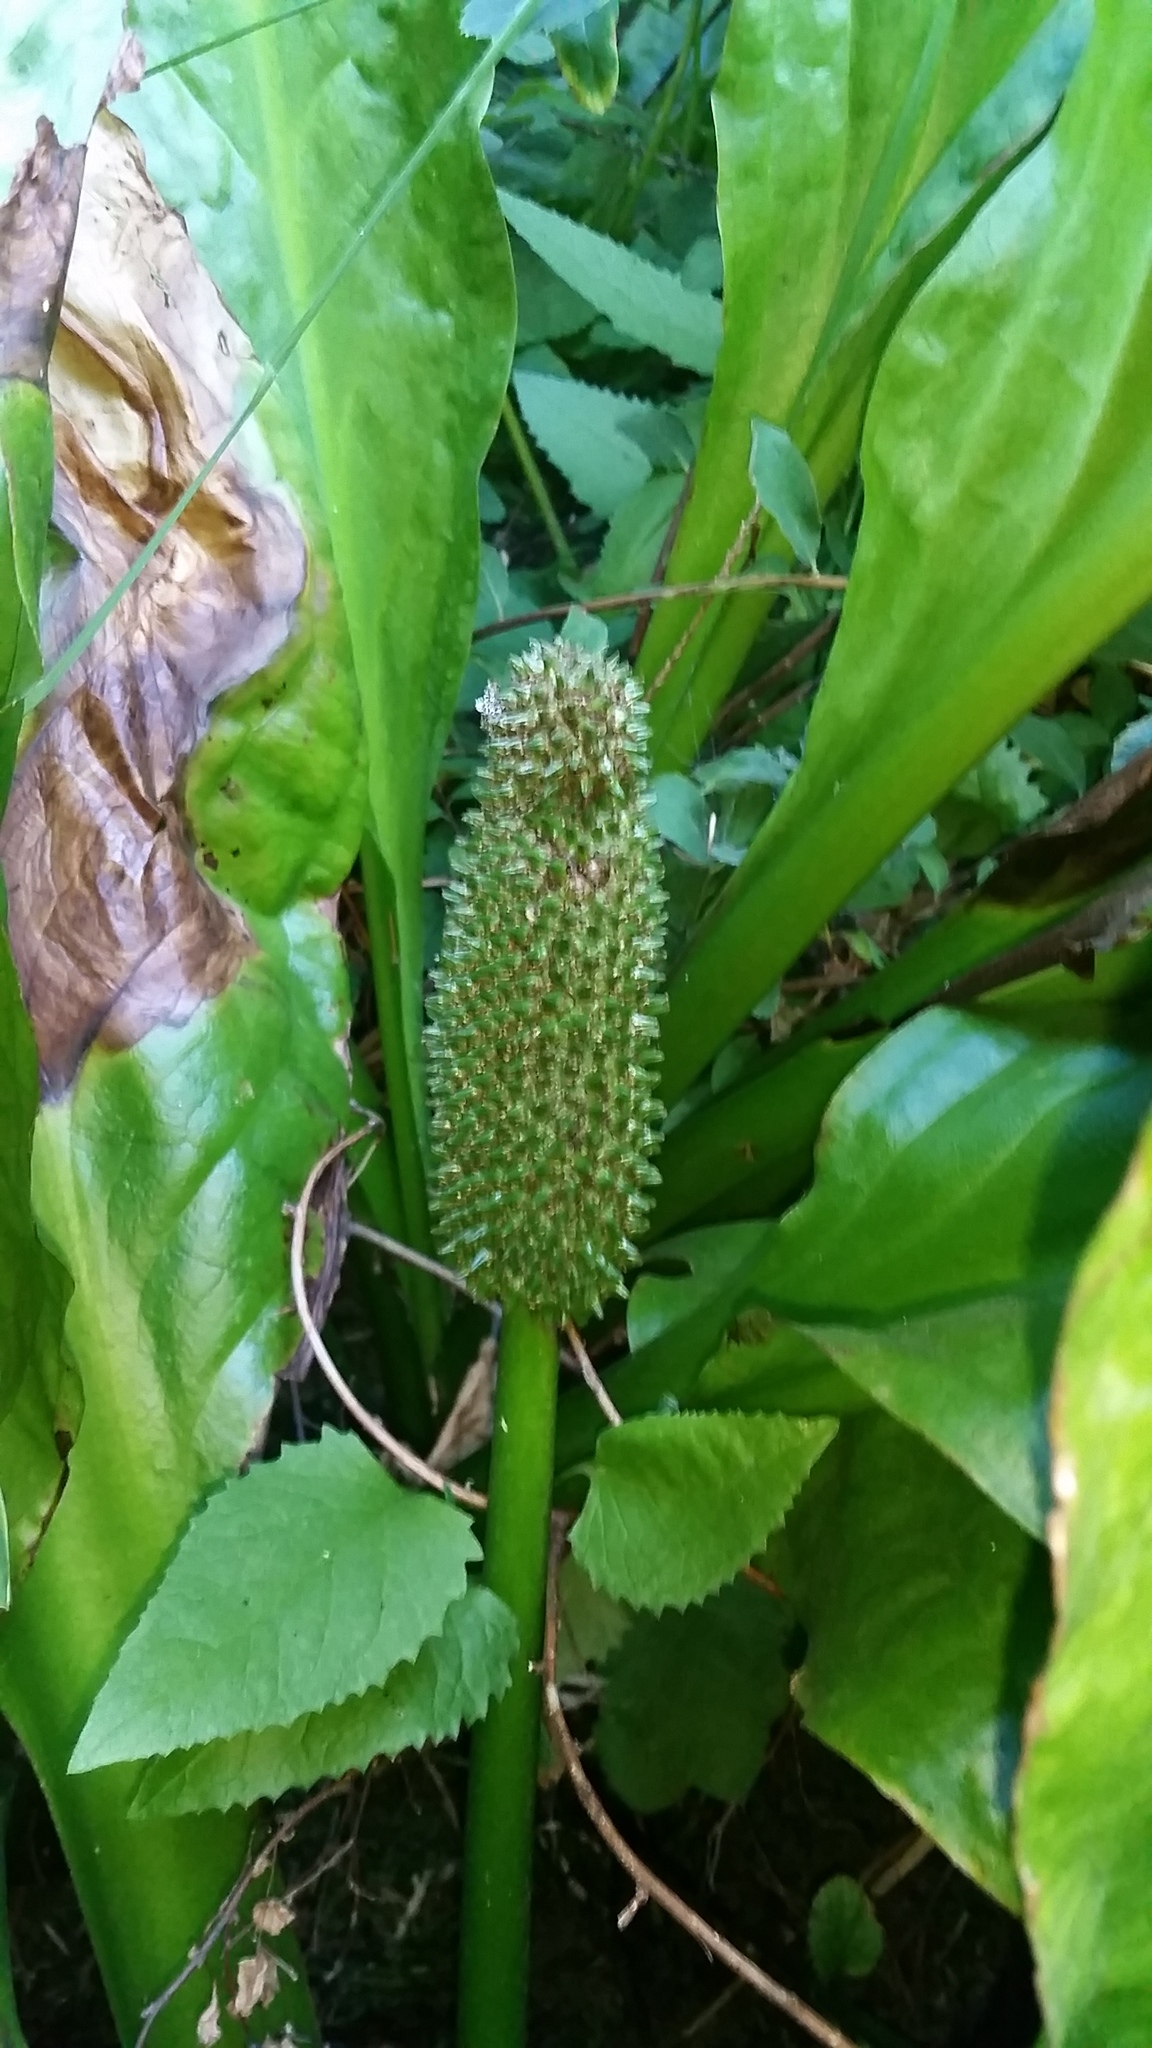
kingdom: Plantae
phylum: Tracheophyta
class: Liliopsida
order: Alismatales
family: Araceae
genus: Lysichiton
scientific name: Lysichiton americanus
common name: American skunk cabbage
